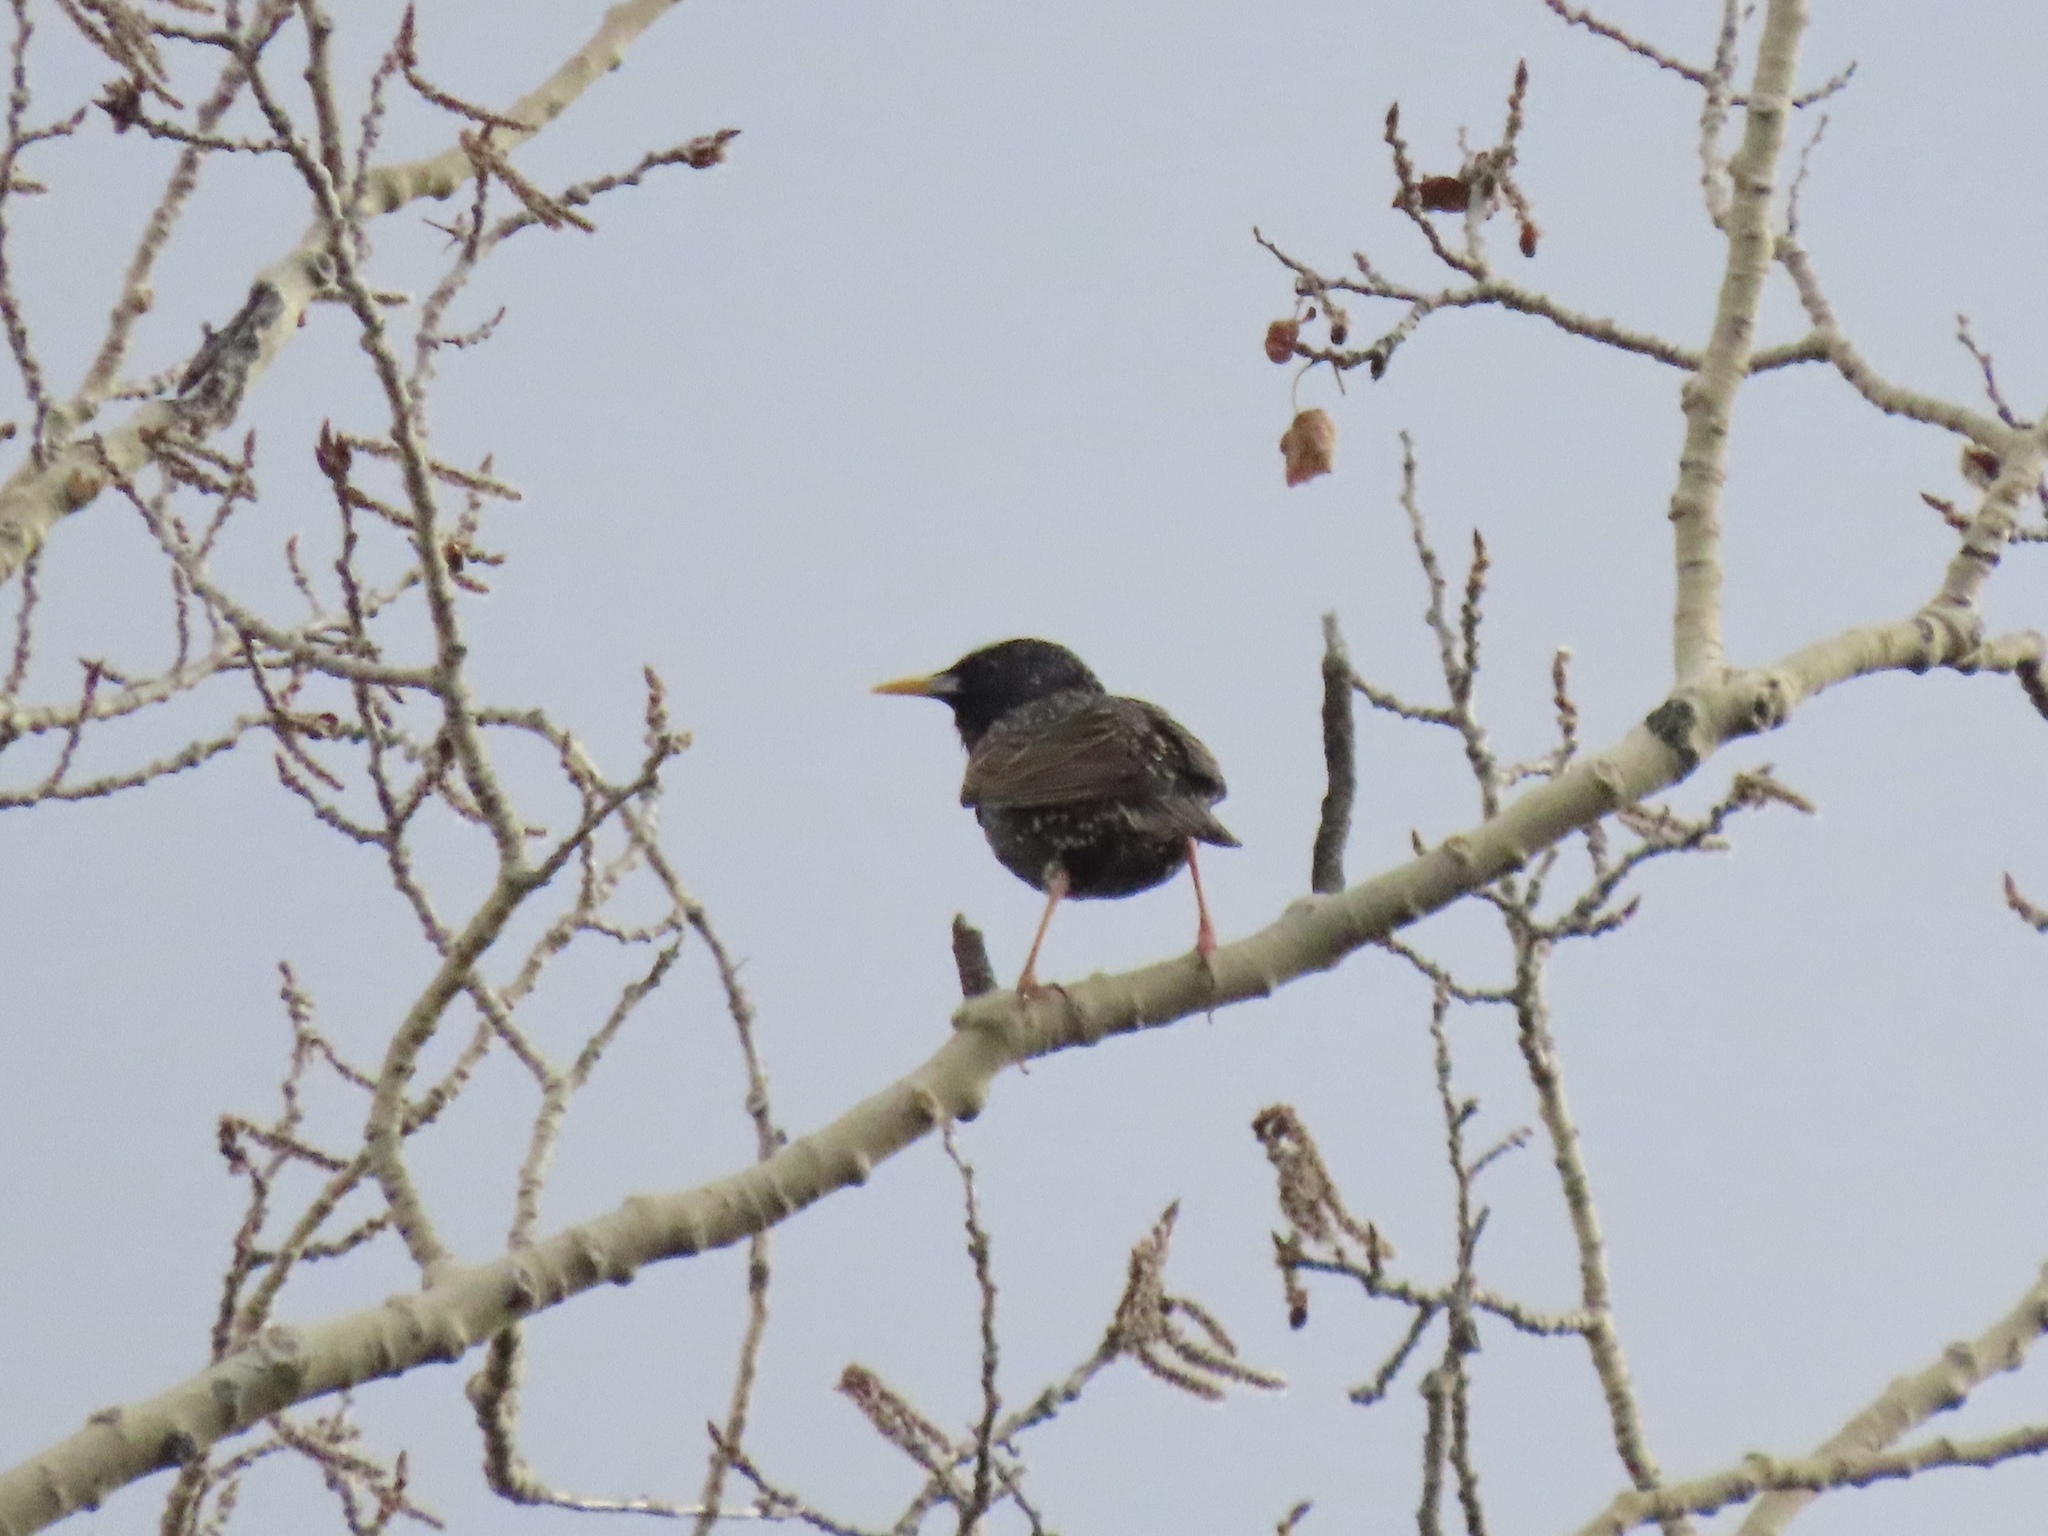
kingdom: Animalia
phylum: Chordata
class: Aves
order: Passeriformes
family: Sturnidae
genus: Sturnus
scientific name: Sturnus vulgaris
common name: Common starling
